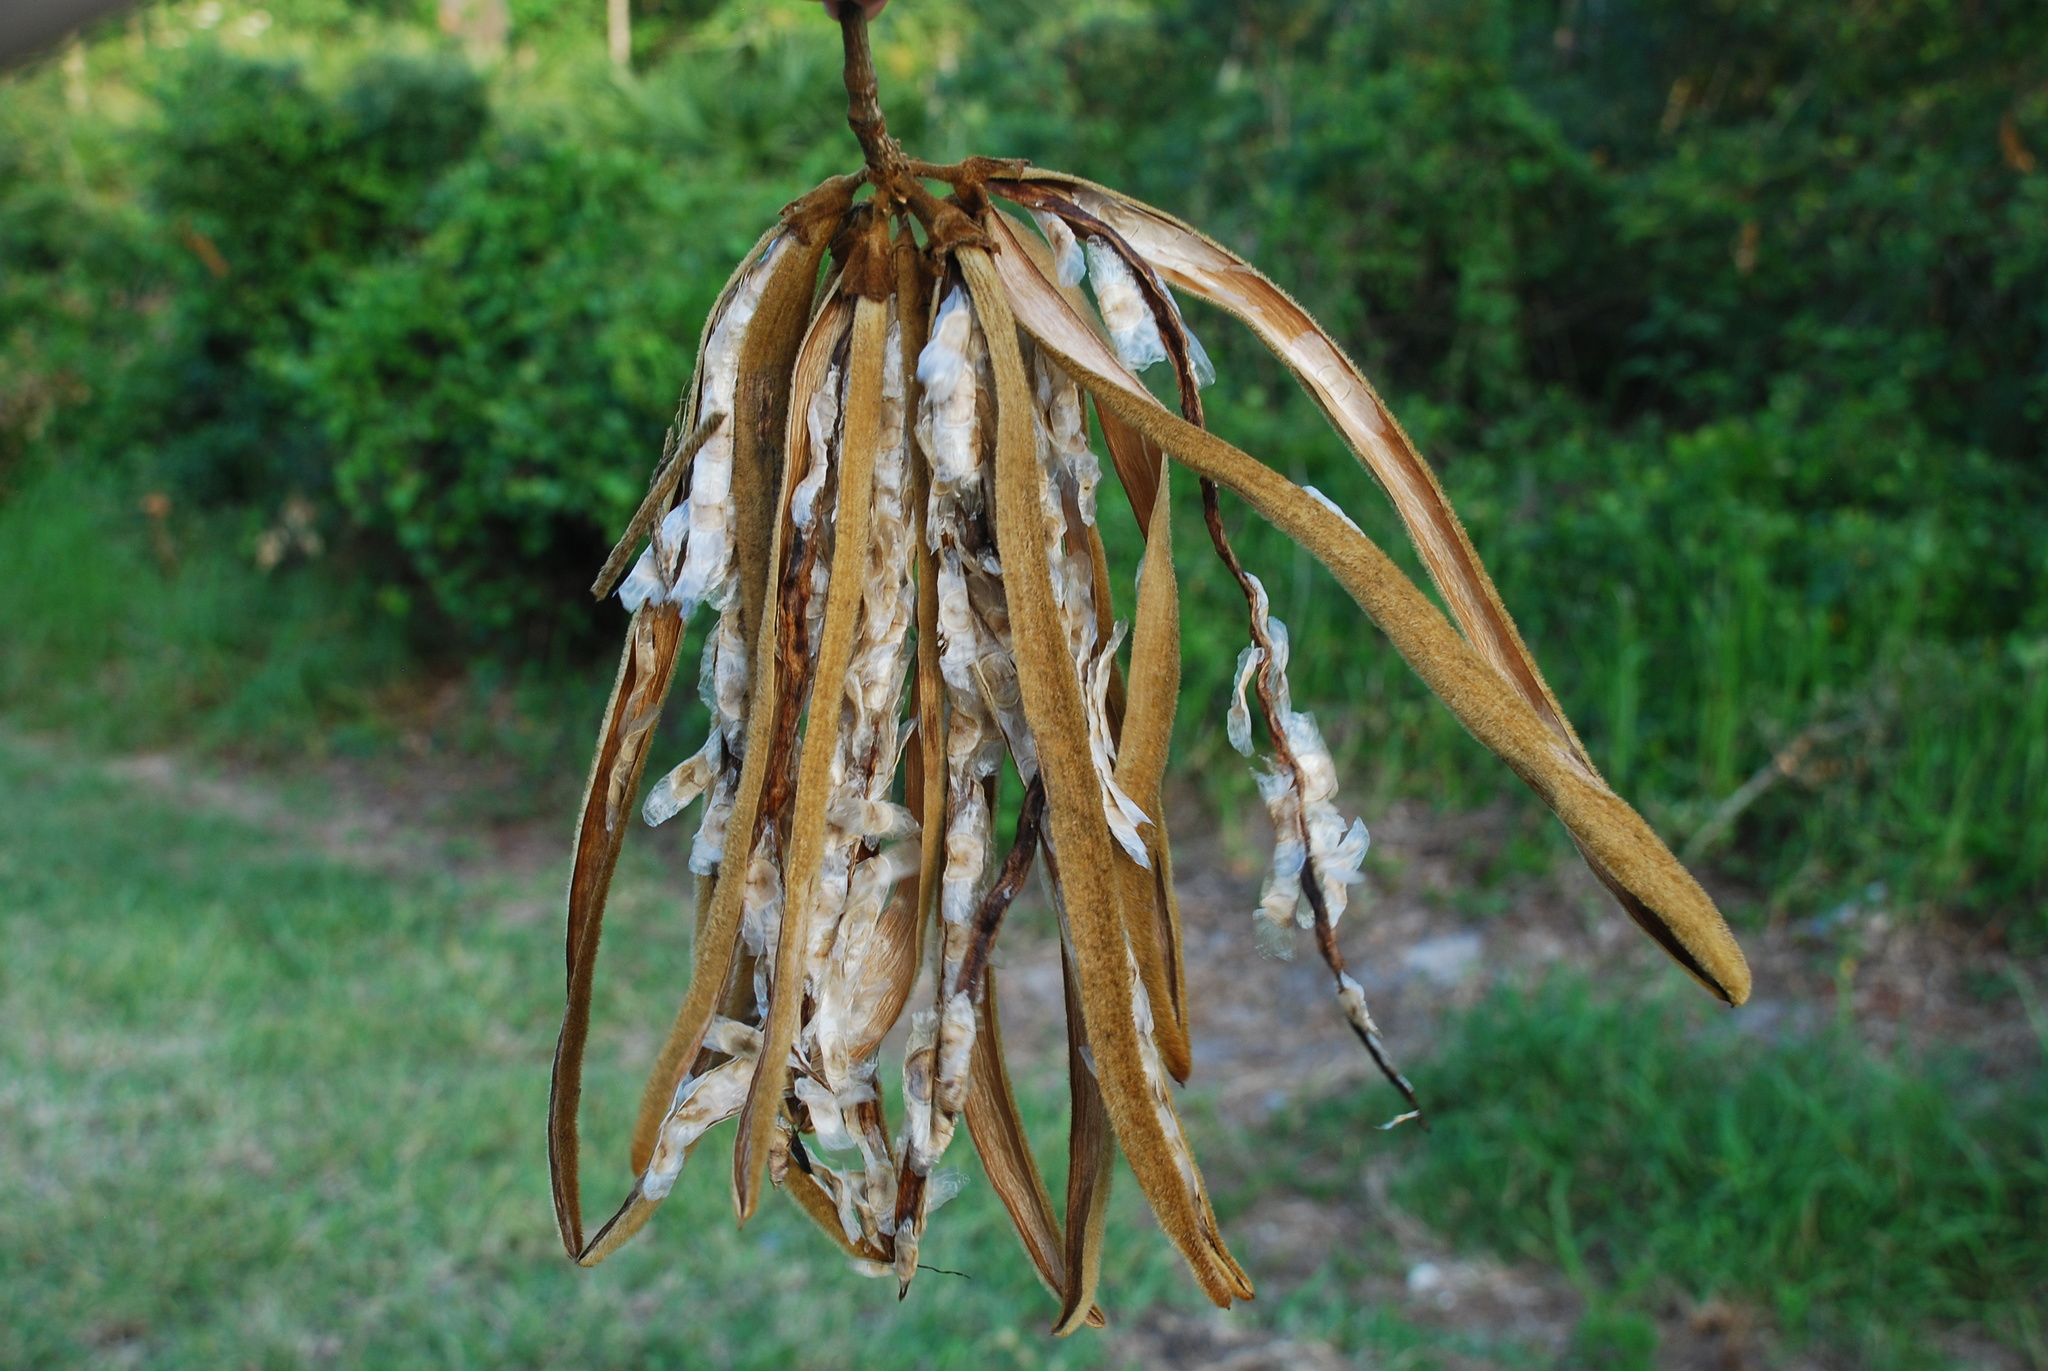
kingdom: Plantae
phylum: Tracheophyta
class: Magnoliopsida
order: Lamiales
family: Bignoniaceae
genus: Handroanthus
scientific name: Handroanthus chrysotrichus
